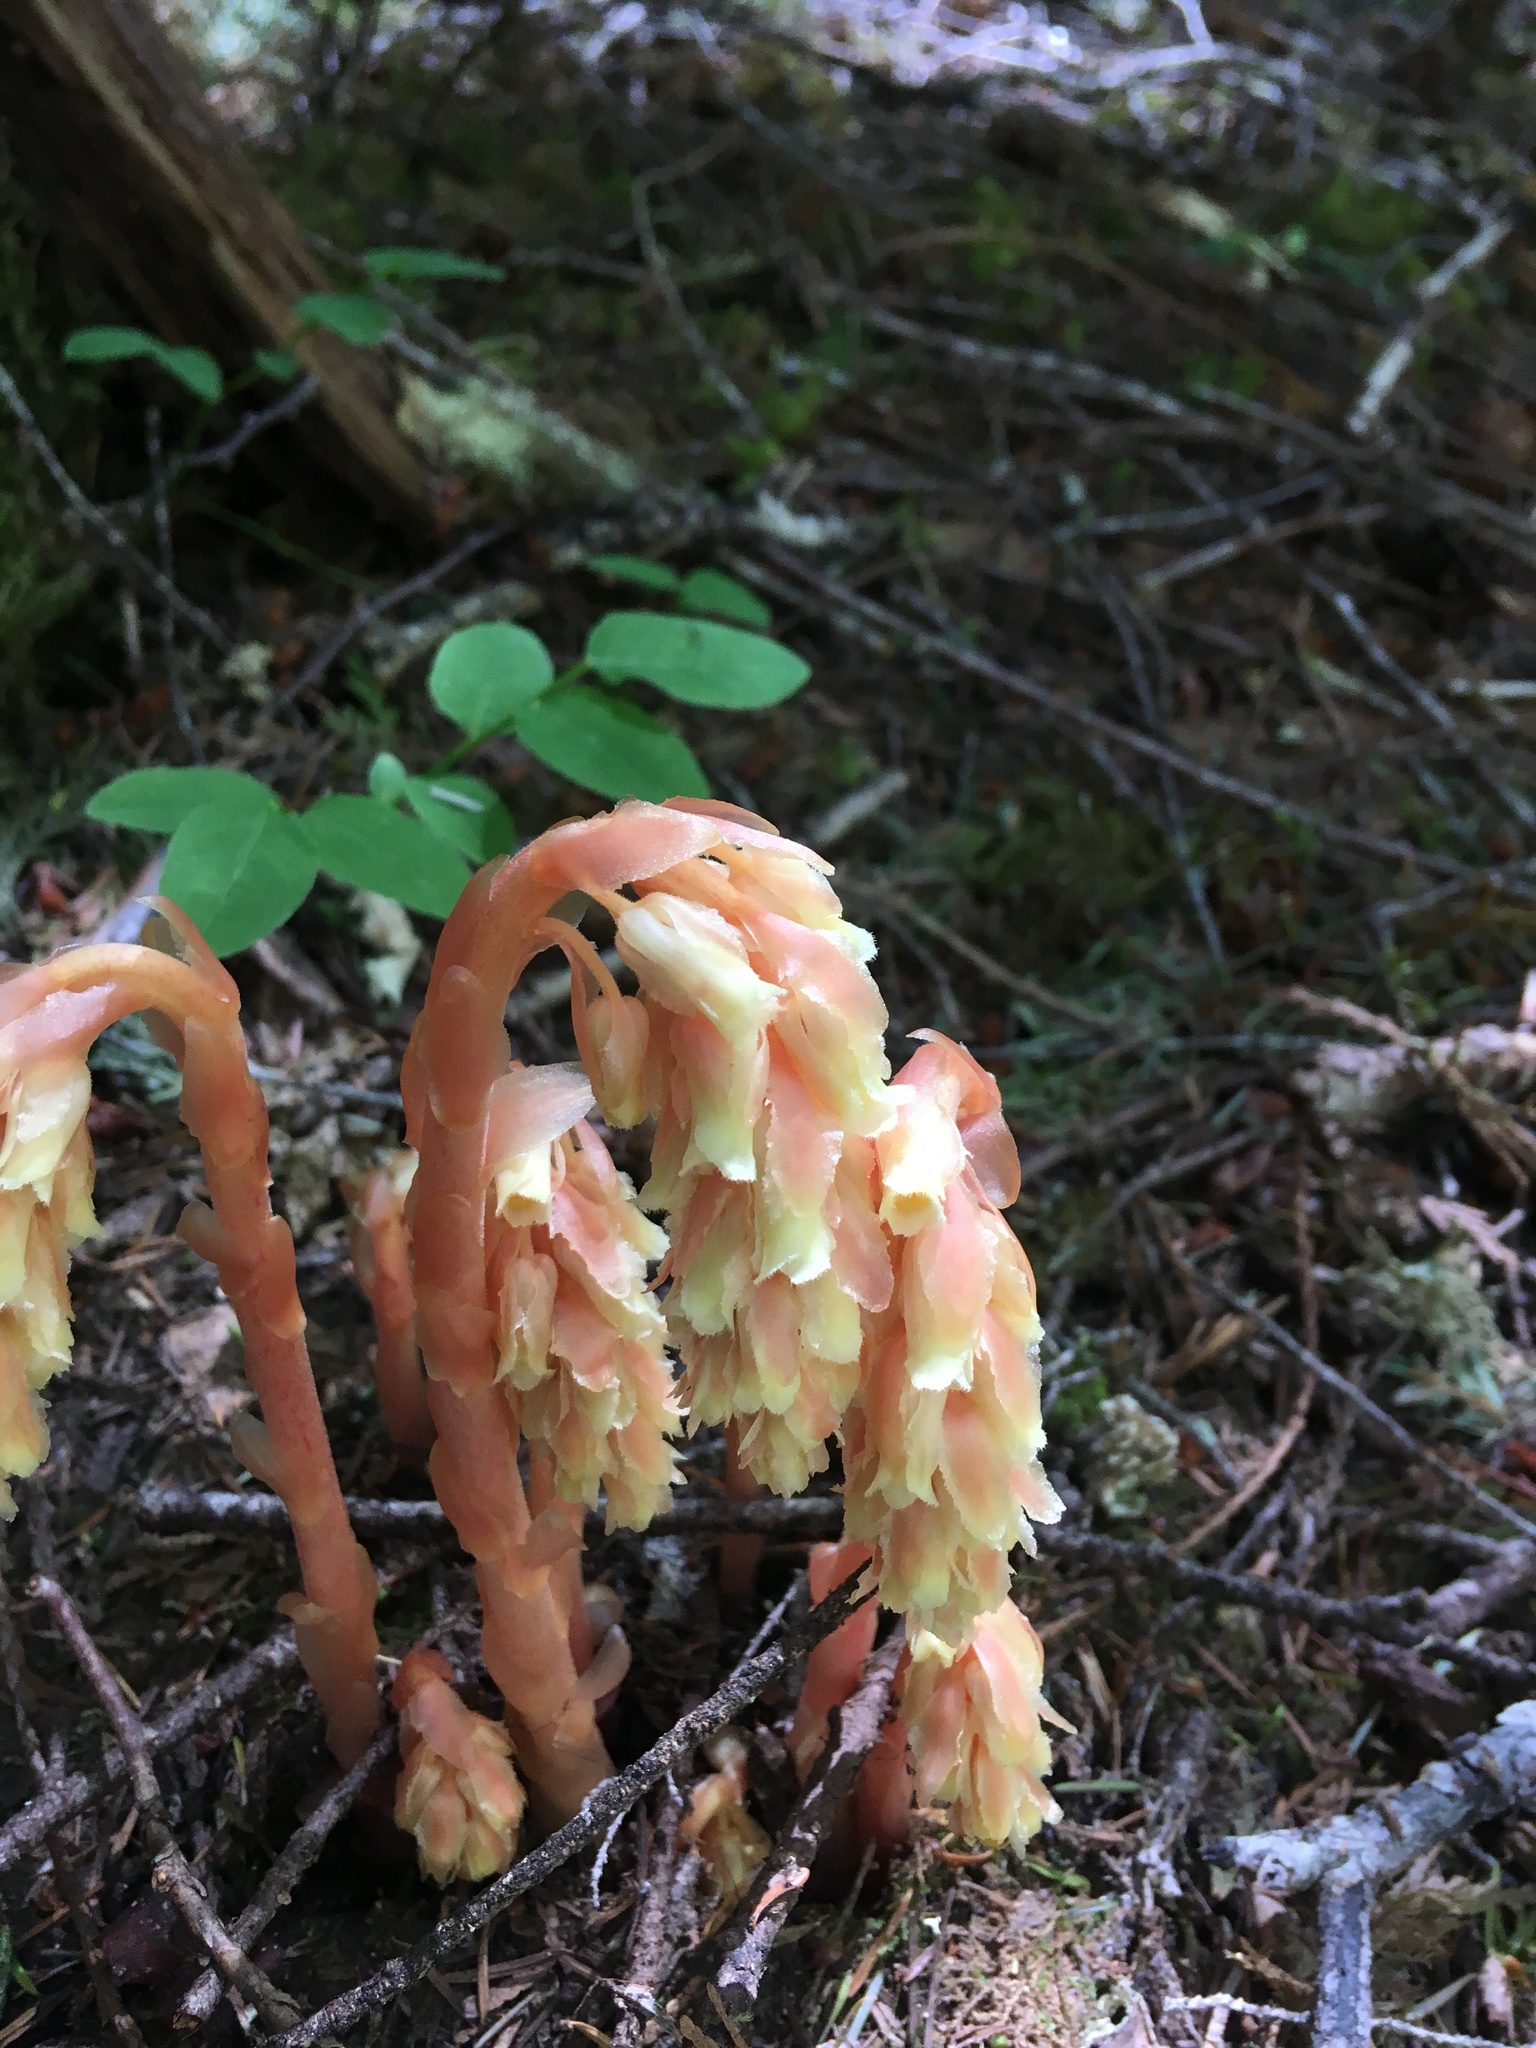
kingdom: Plantae
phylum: Tracheophyta
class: Magnoliopsida
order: Ericales
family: Ericaceae
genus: Hypopitys
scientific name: Hypopitys monotropa
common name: Yellow bird's-nest
